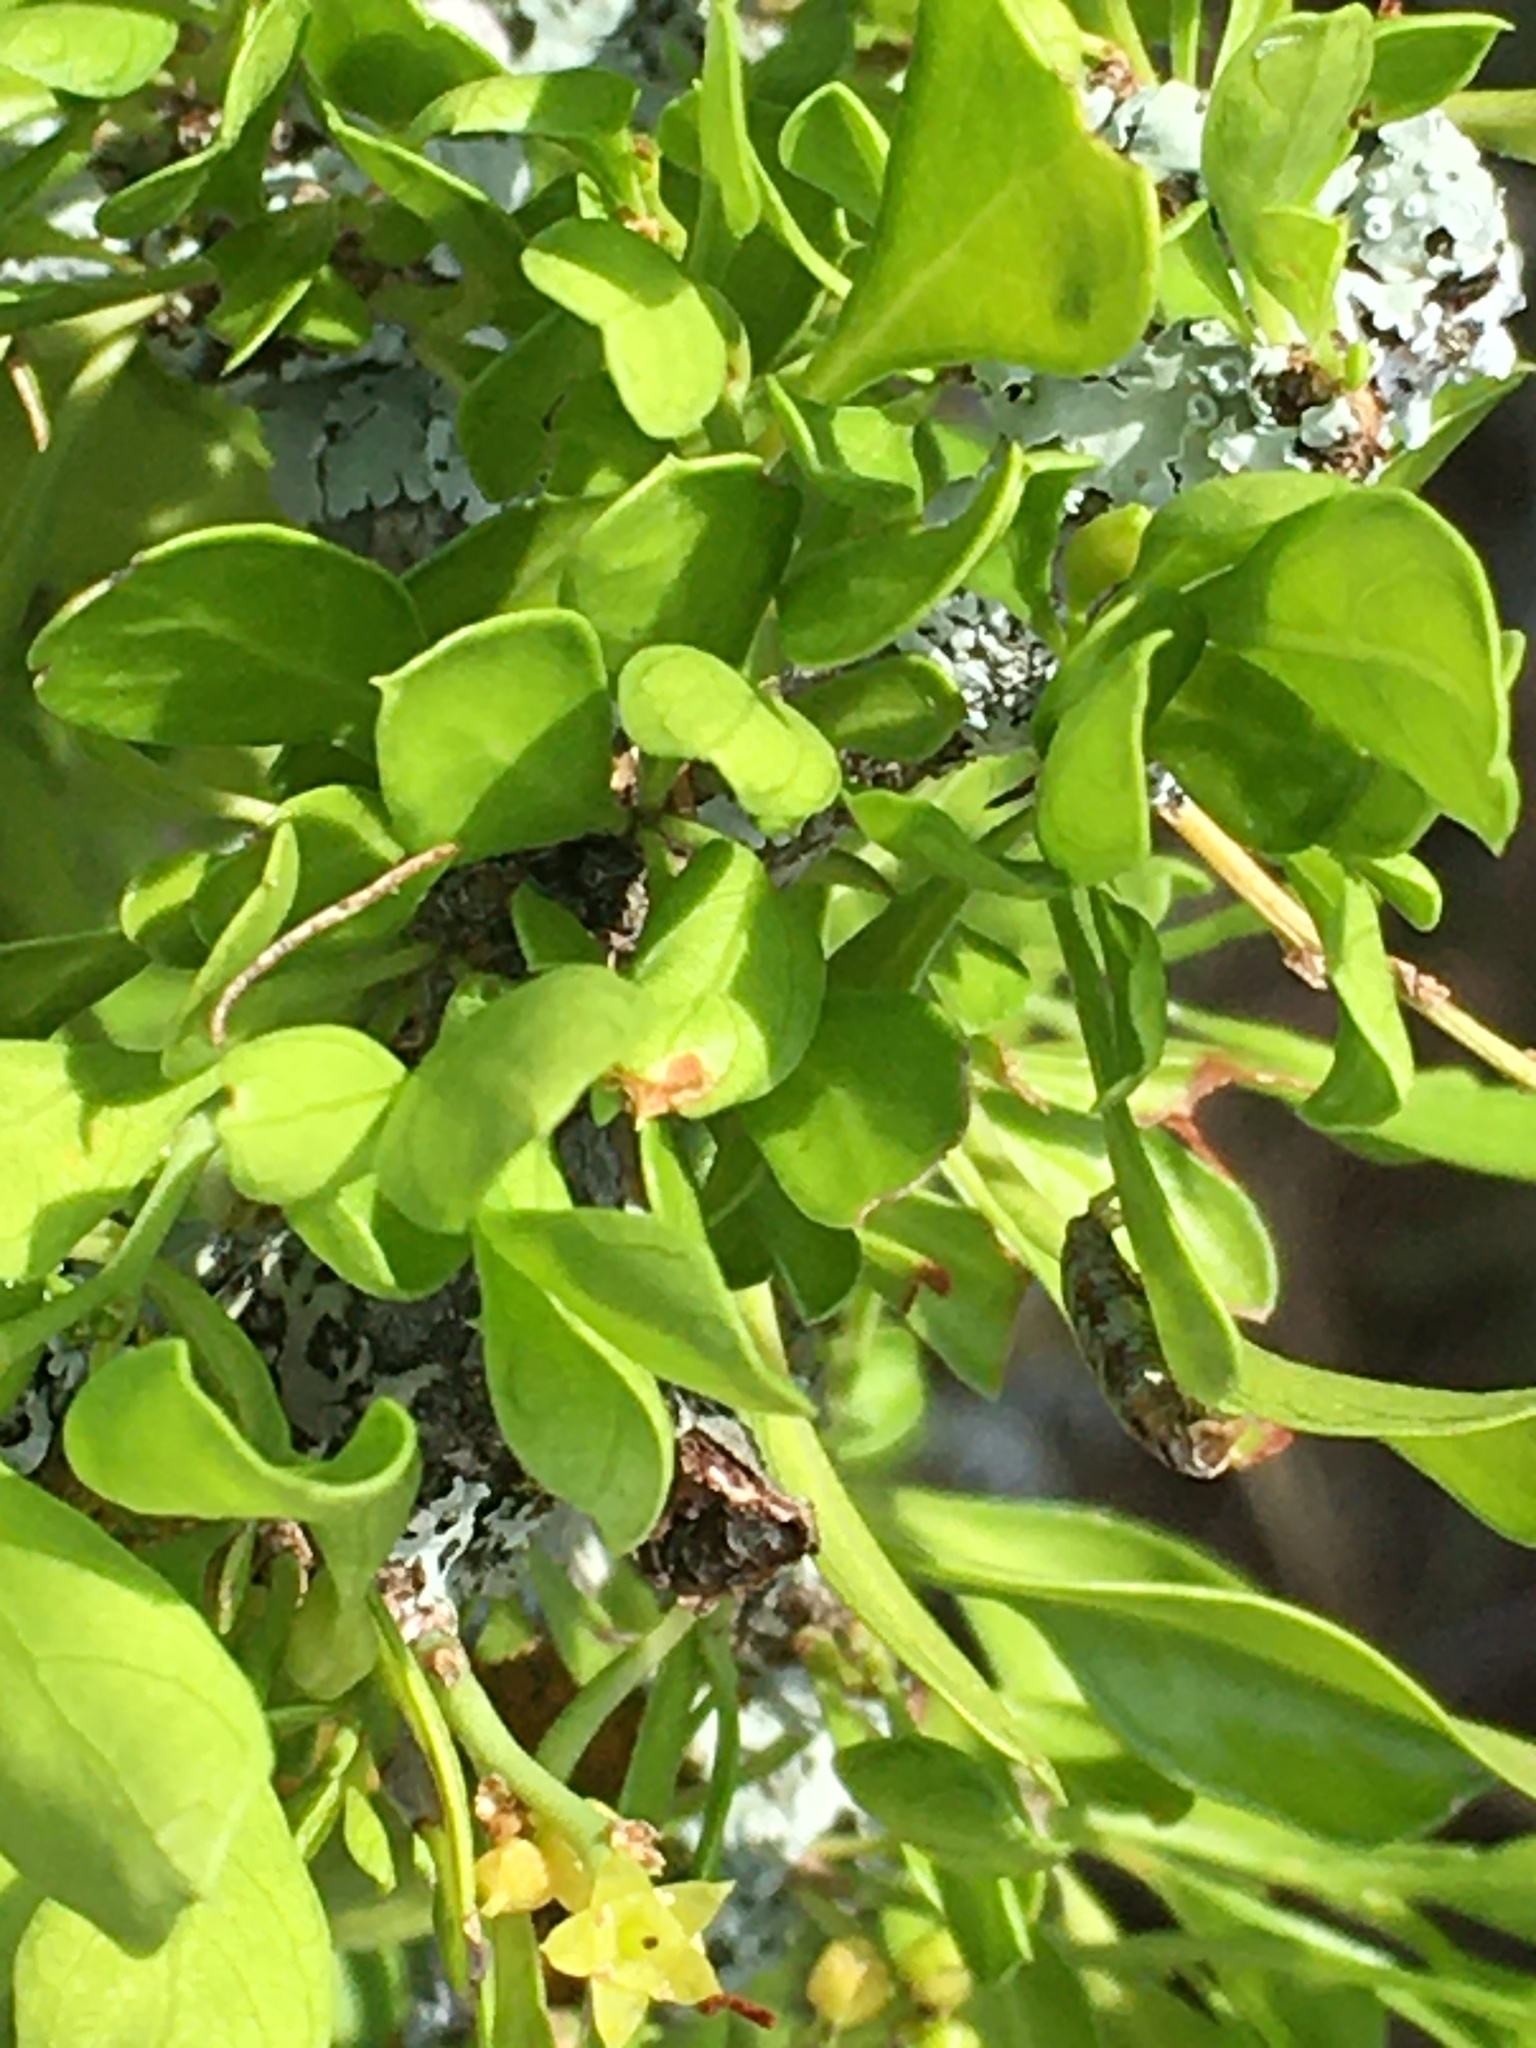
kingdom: Plantae
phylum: Tracheophyta
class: Magnoliopsida
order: Rosales
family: Rhamnaceae
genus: Condalia
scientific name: Condalia hookeri
